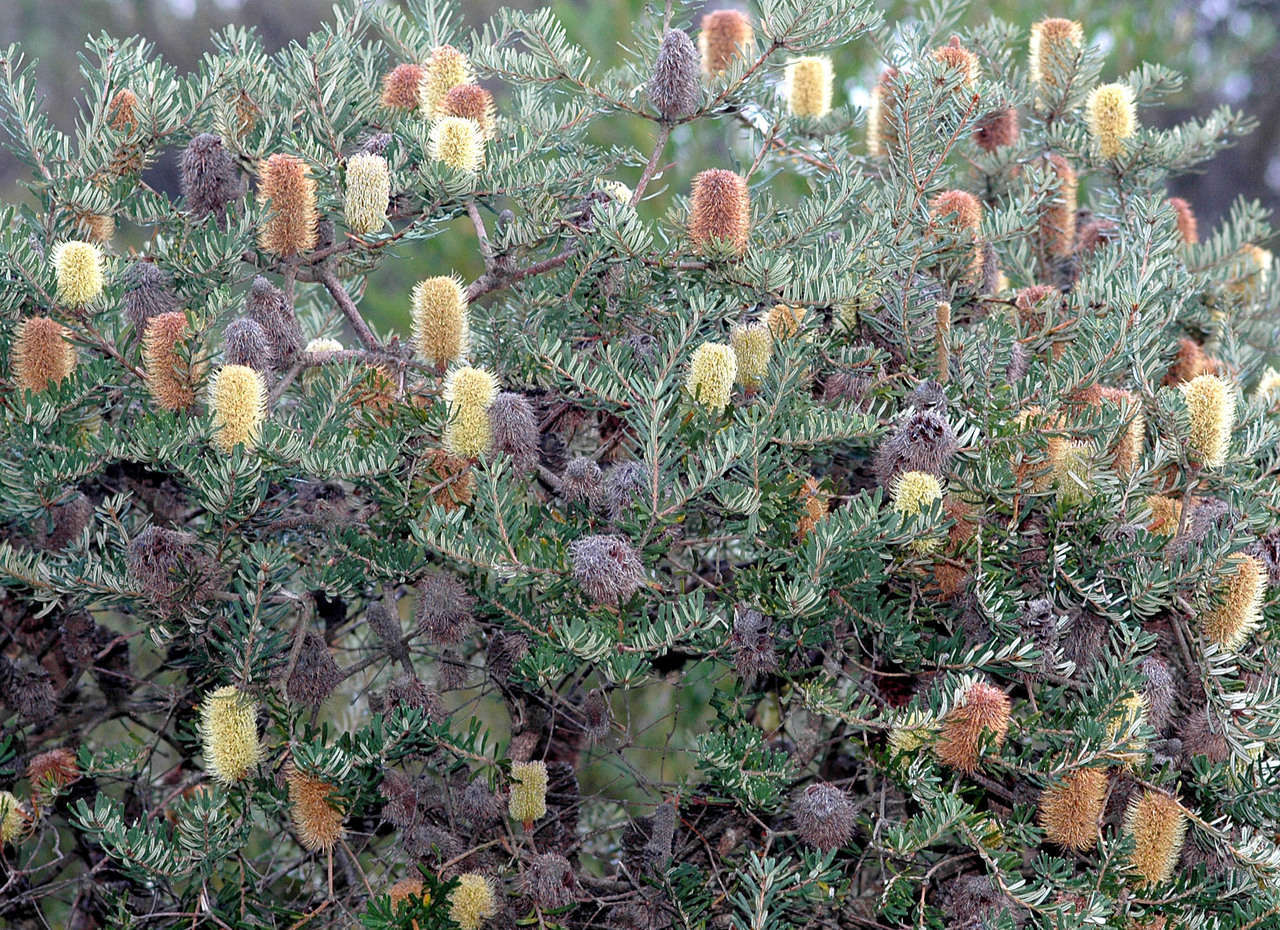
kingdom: Plantae
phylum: Tracheophyta
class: Magnoliopsida
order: Proteales
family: Proteaceae
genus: Banksia
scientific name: Banksia marginata
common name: Silver banksia
